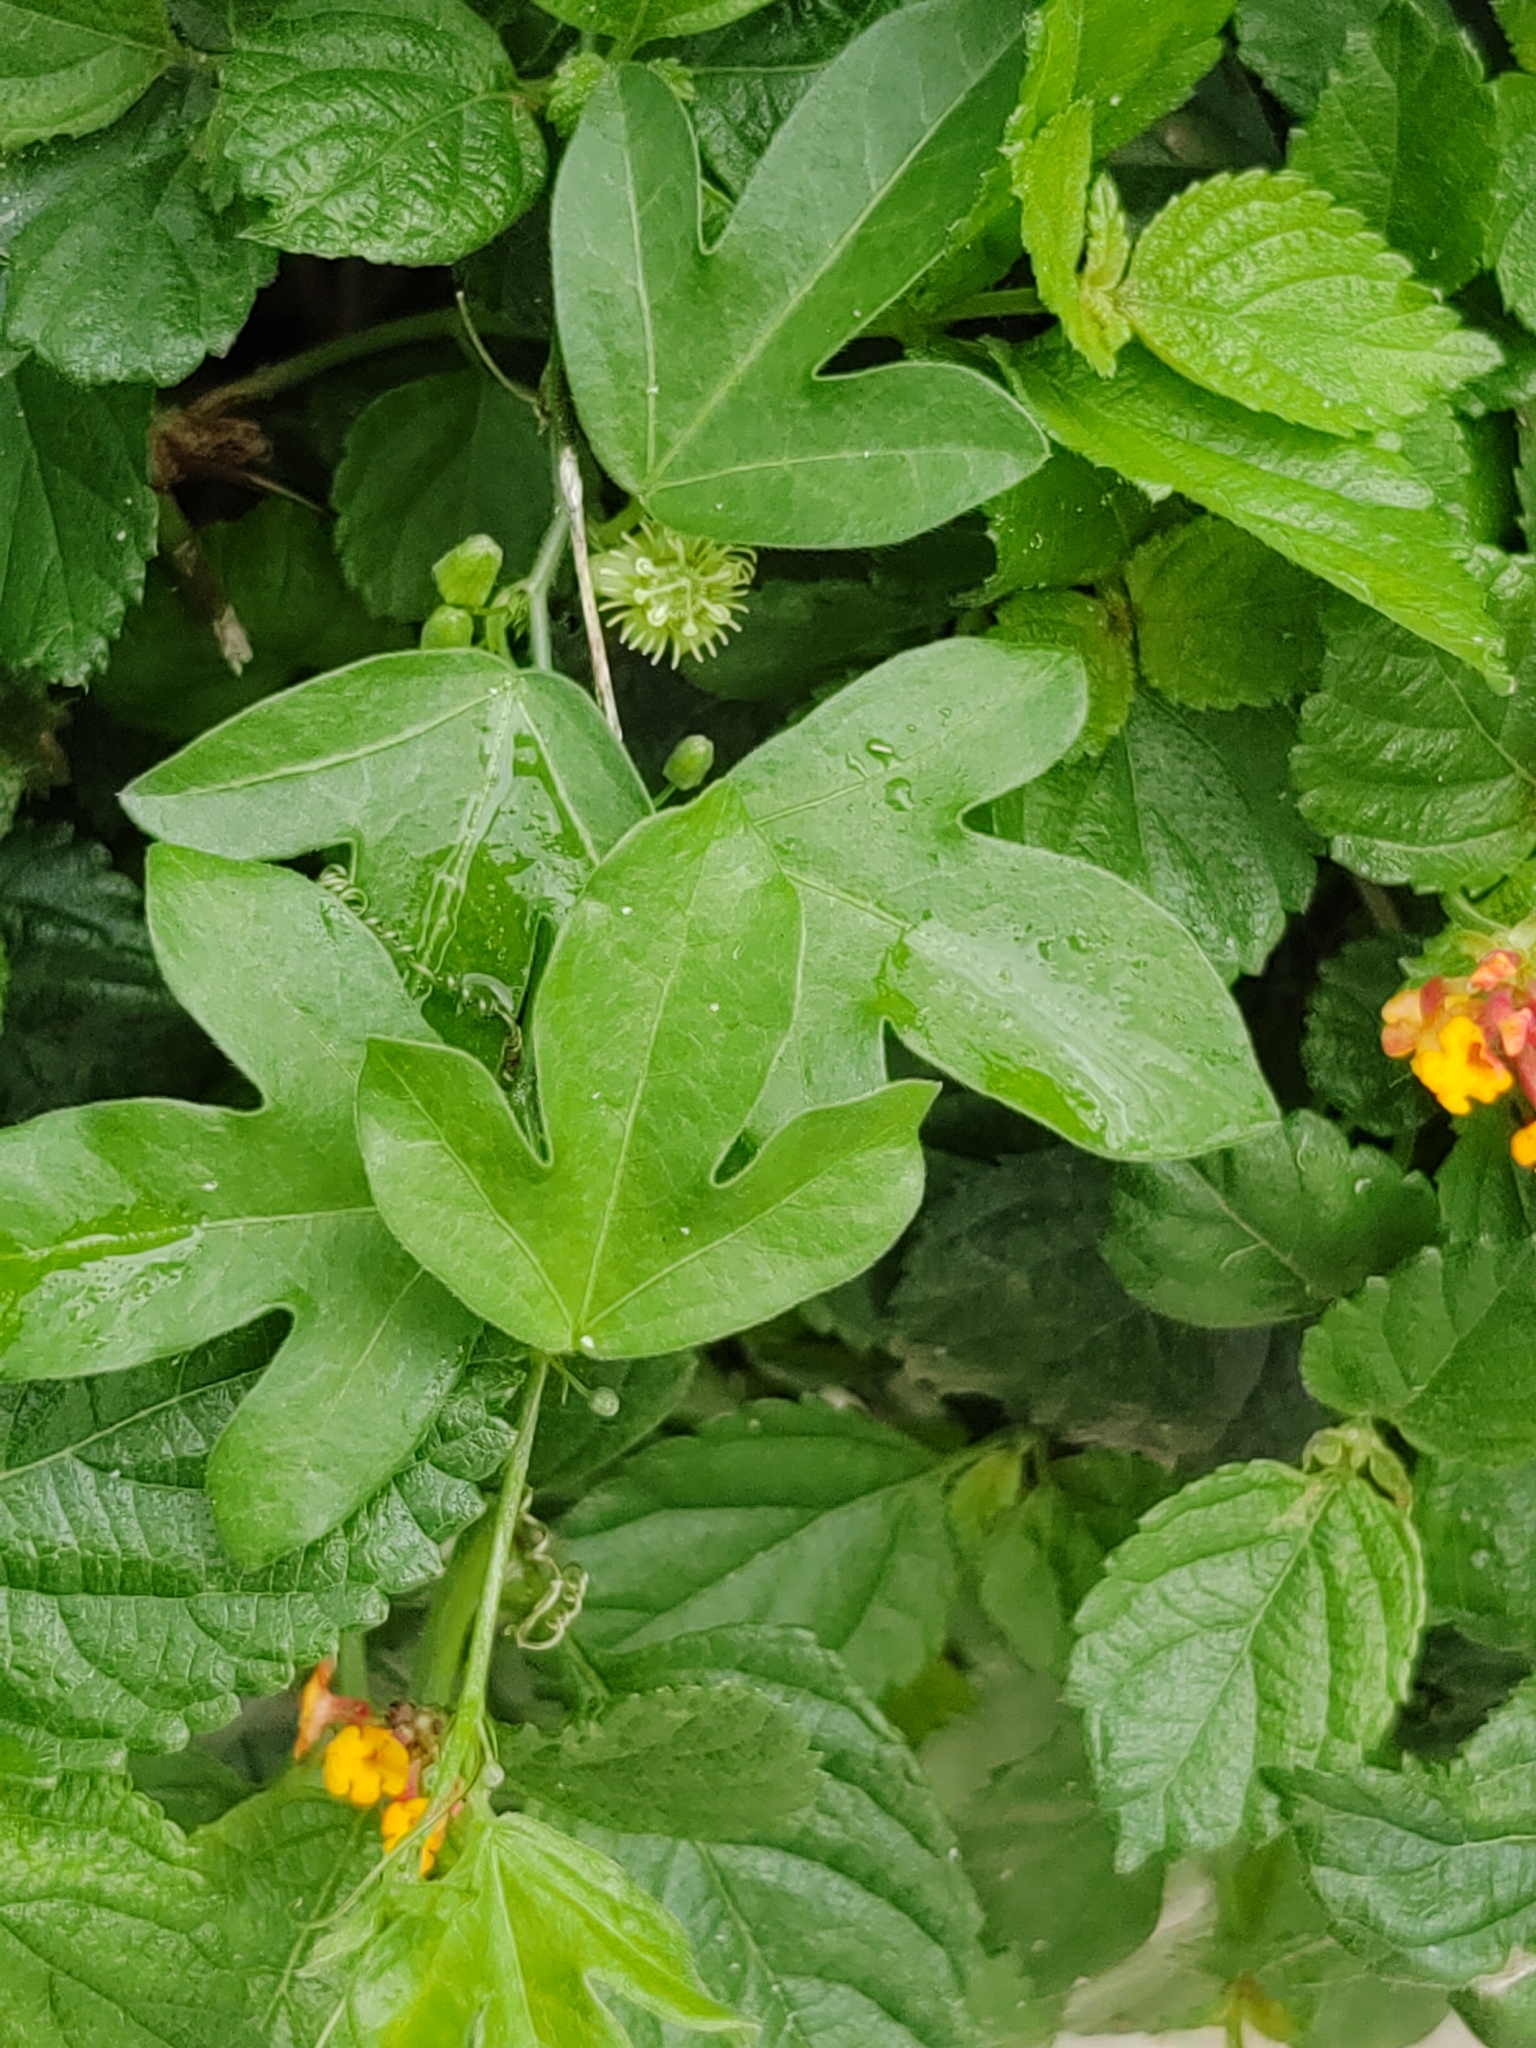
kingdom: Plantae
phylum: Tracheophyta
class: Magnoliopsida
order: Malpighiales
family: Passifloraceae
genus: Passiflora
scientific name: Passiflora suberosa
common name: Wild passionfruit
